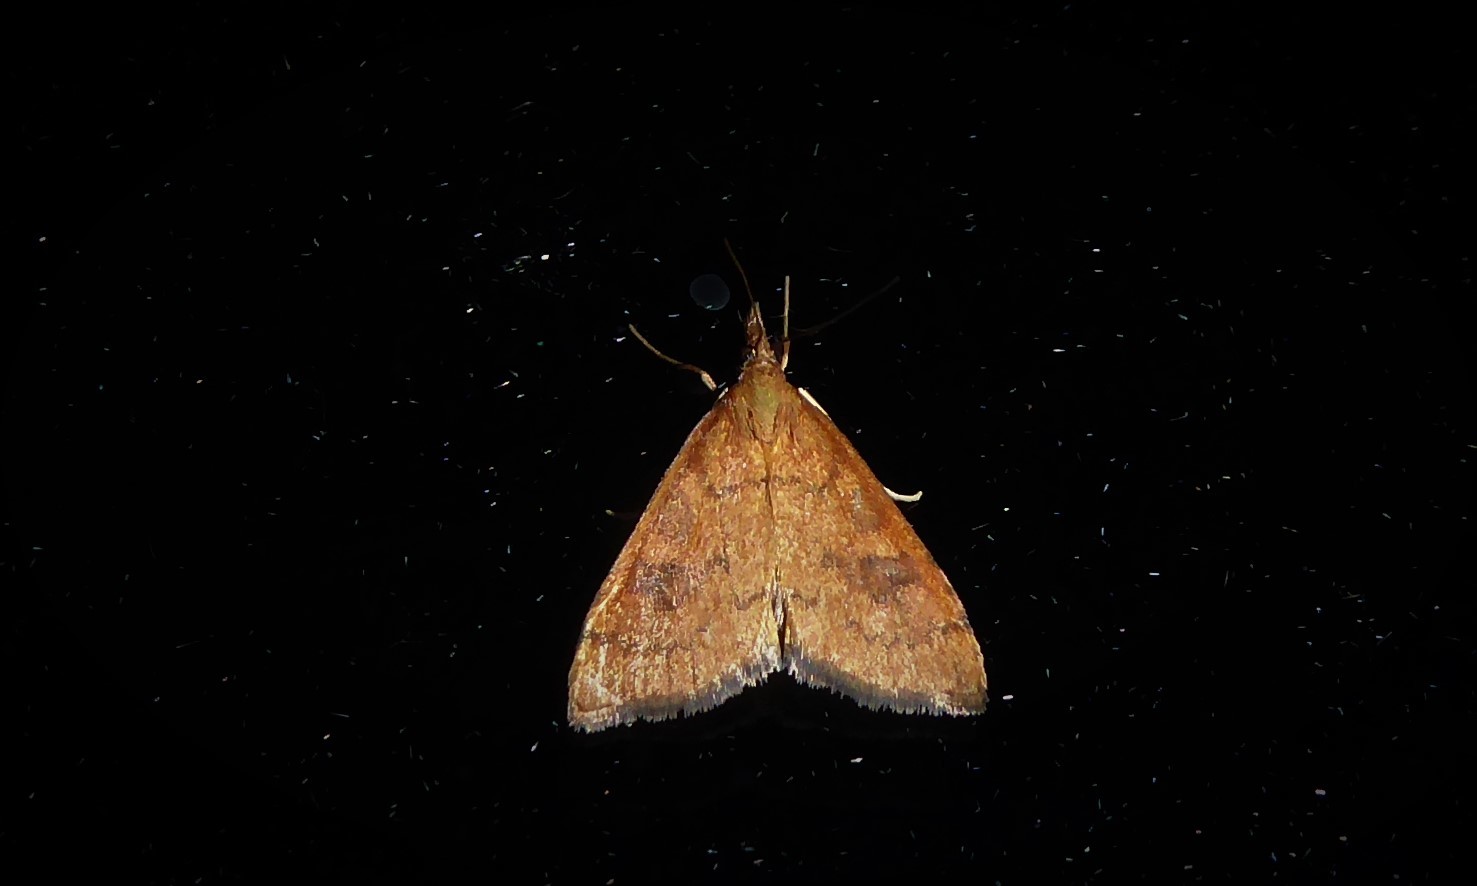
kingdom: Animalia
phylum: Arthropoda
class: Insecta
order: Lepidoptera
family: Crambidae
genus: Udea
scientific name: Udea Mnesictena flavidalis
